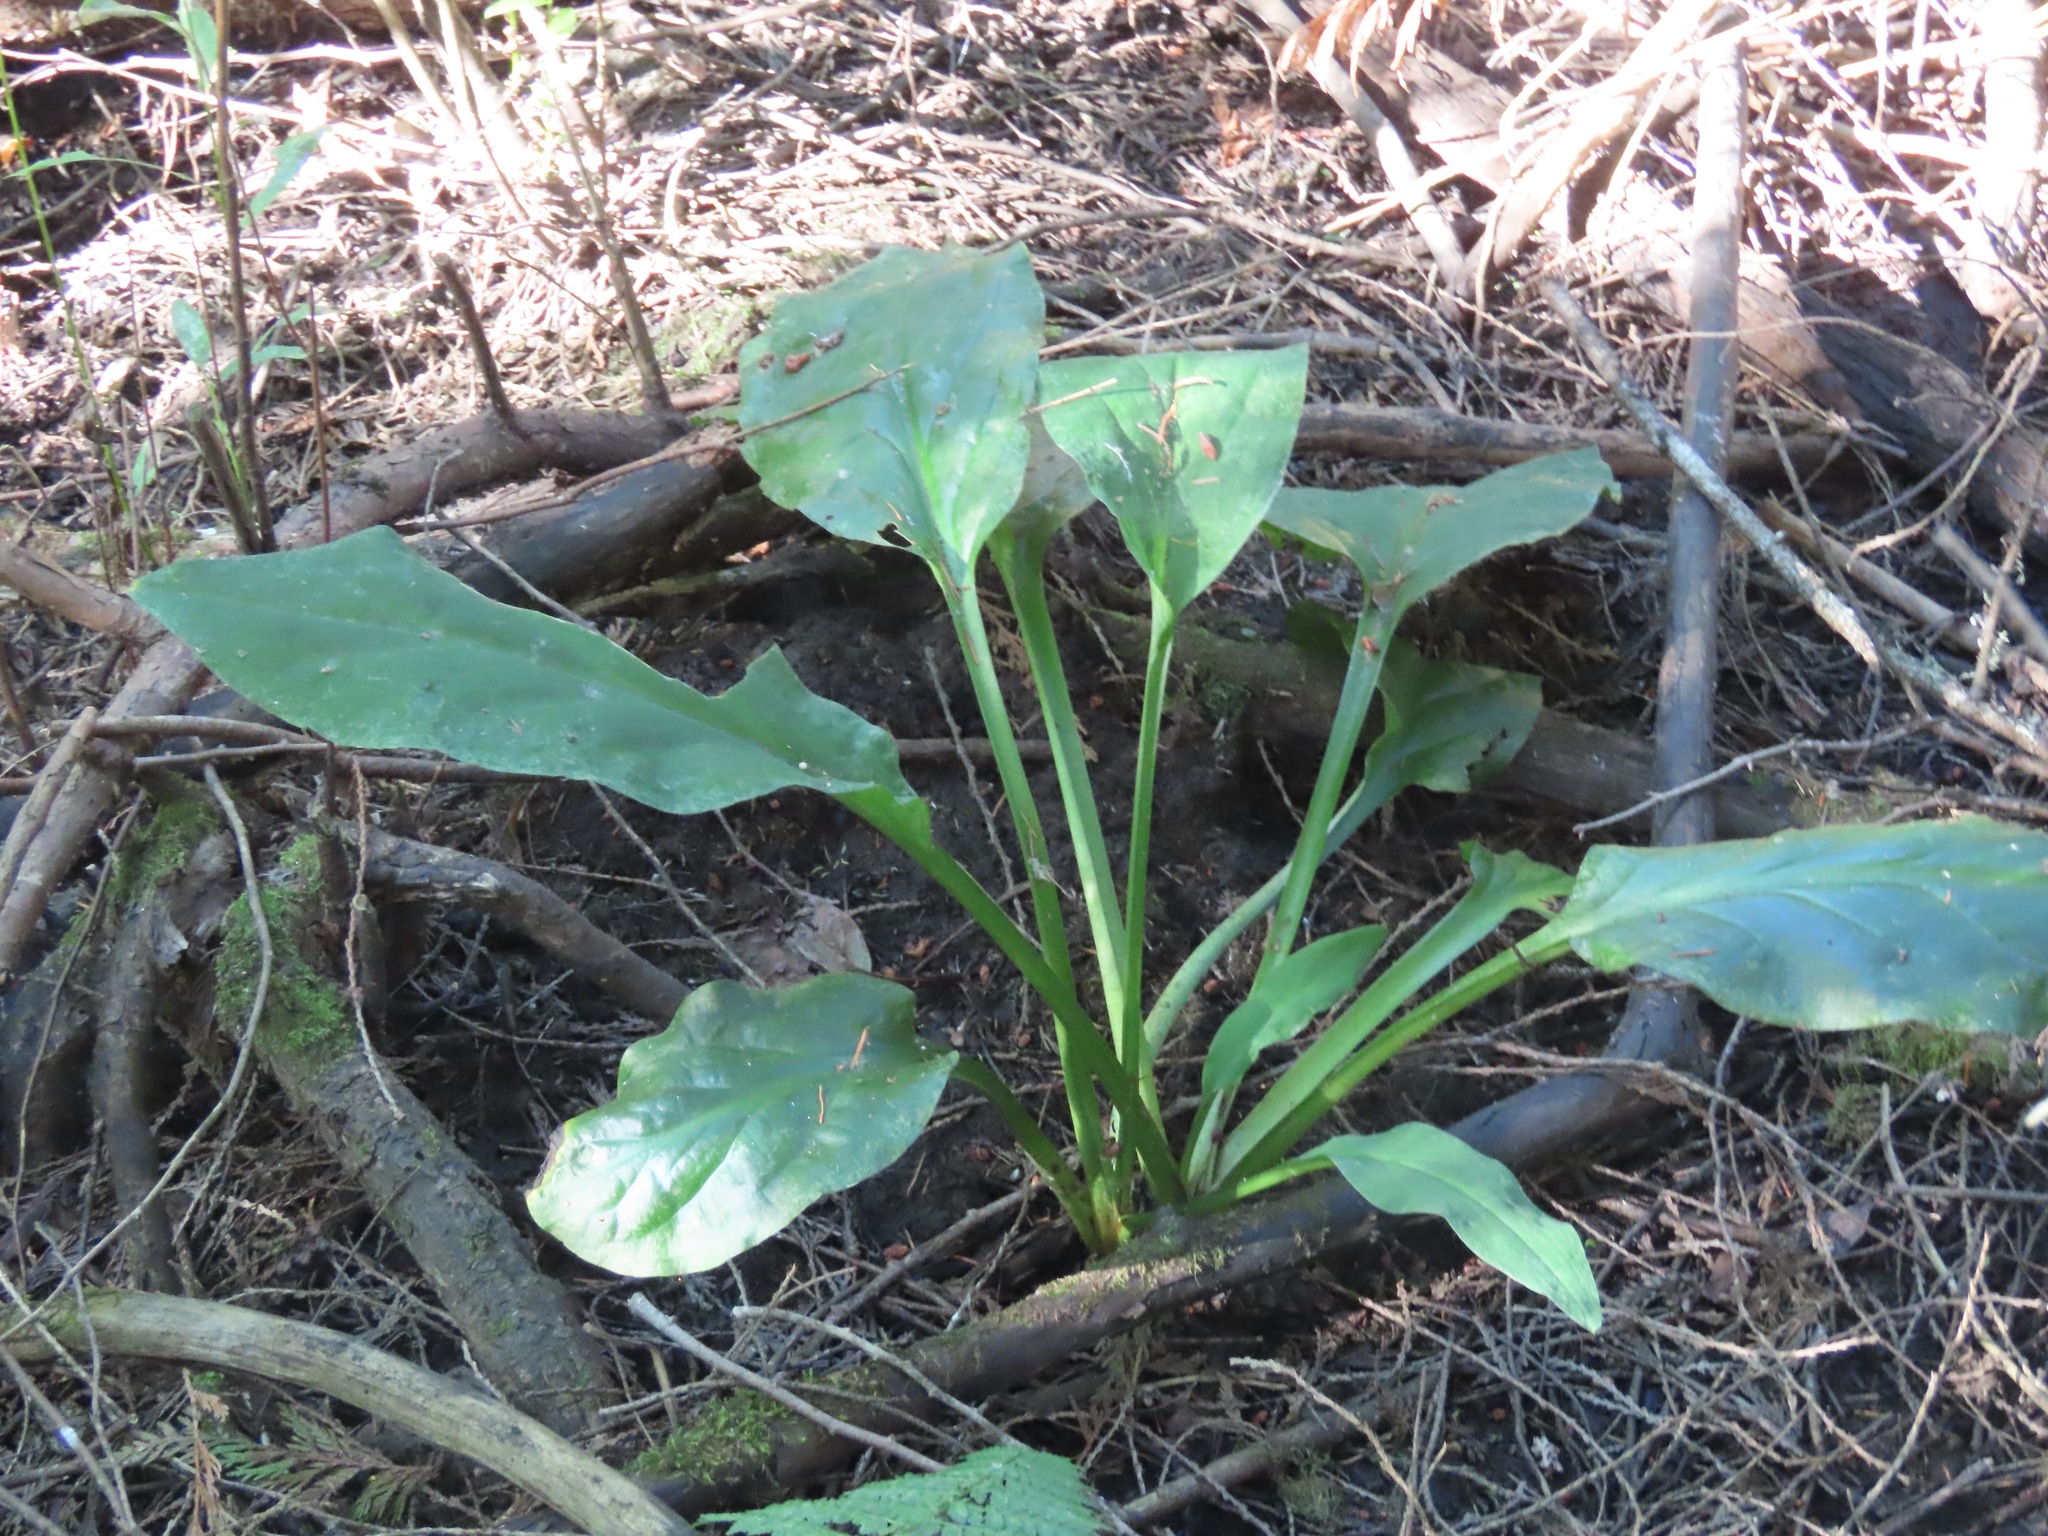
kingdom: Plantae
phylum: Tracheophyta
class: Liliopsida
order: Alismatales
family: Araceae
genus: Lysichiton
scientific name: Lysichiton americanus
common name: American skunk cabbage
